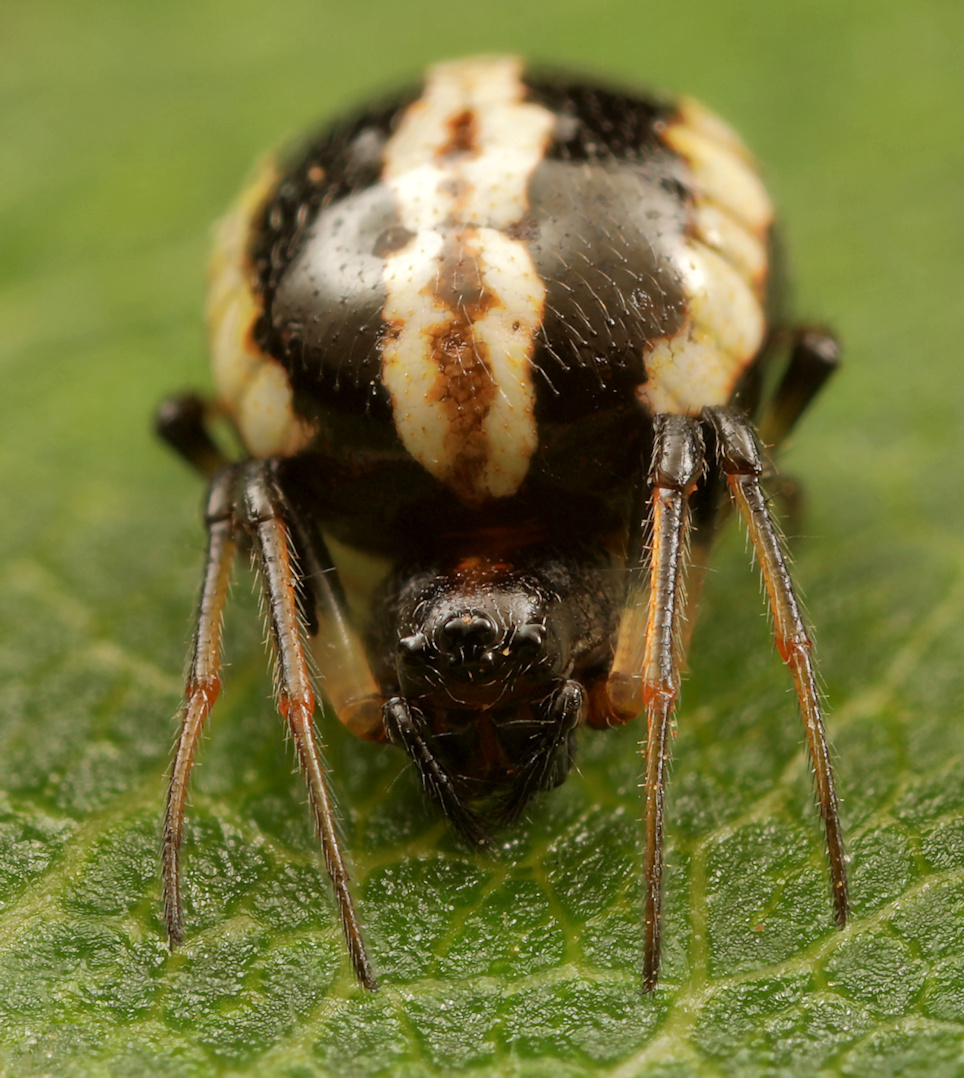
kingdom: Animalia
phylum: Arthropoda
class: Arachnida
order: Araneae
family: Araneidae
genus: Singa
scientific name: Singa albodorsata
